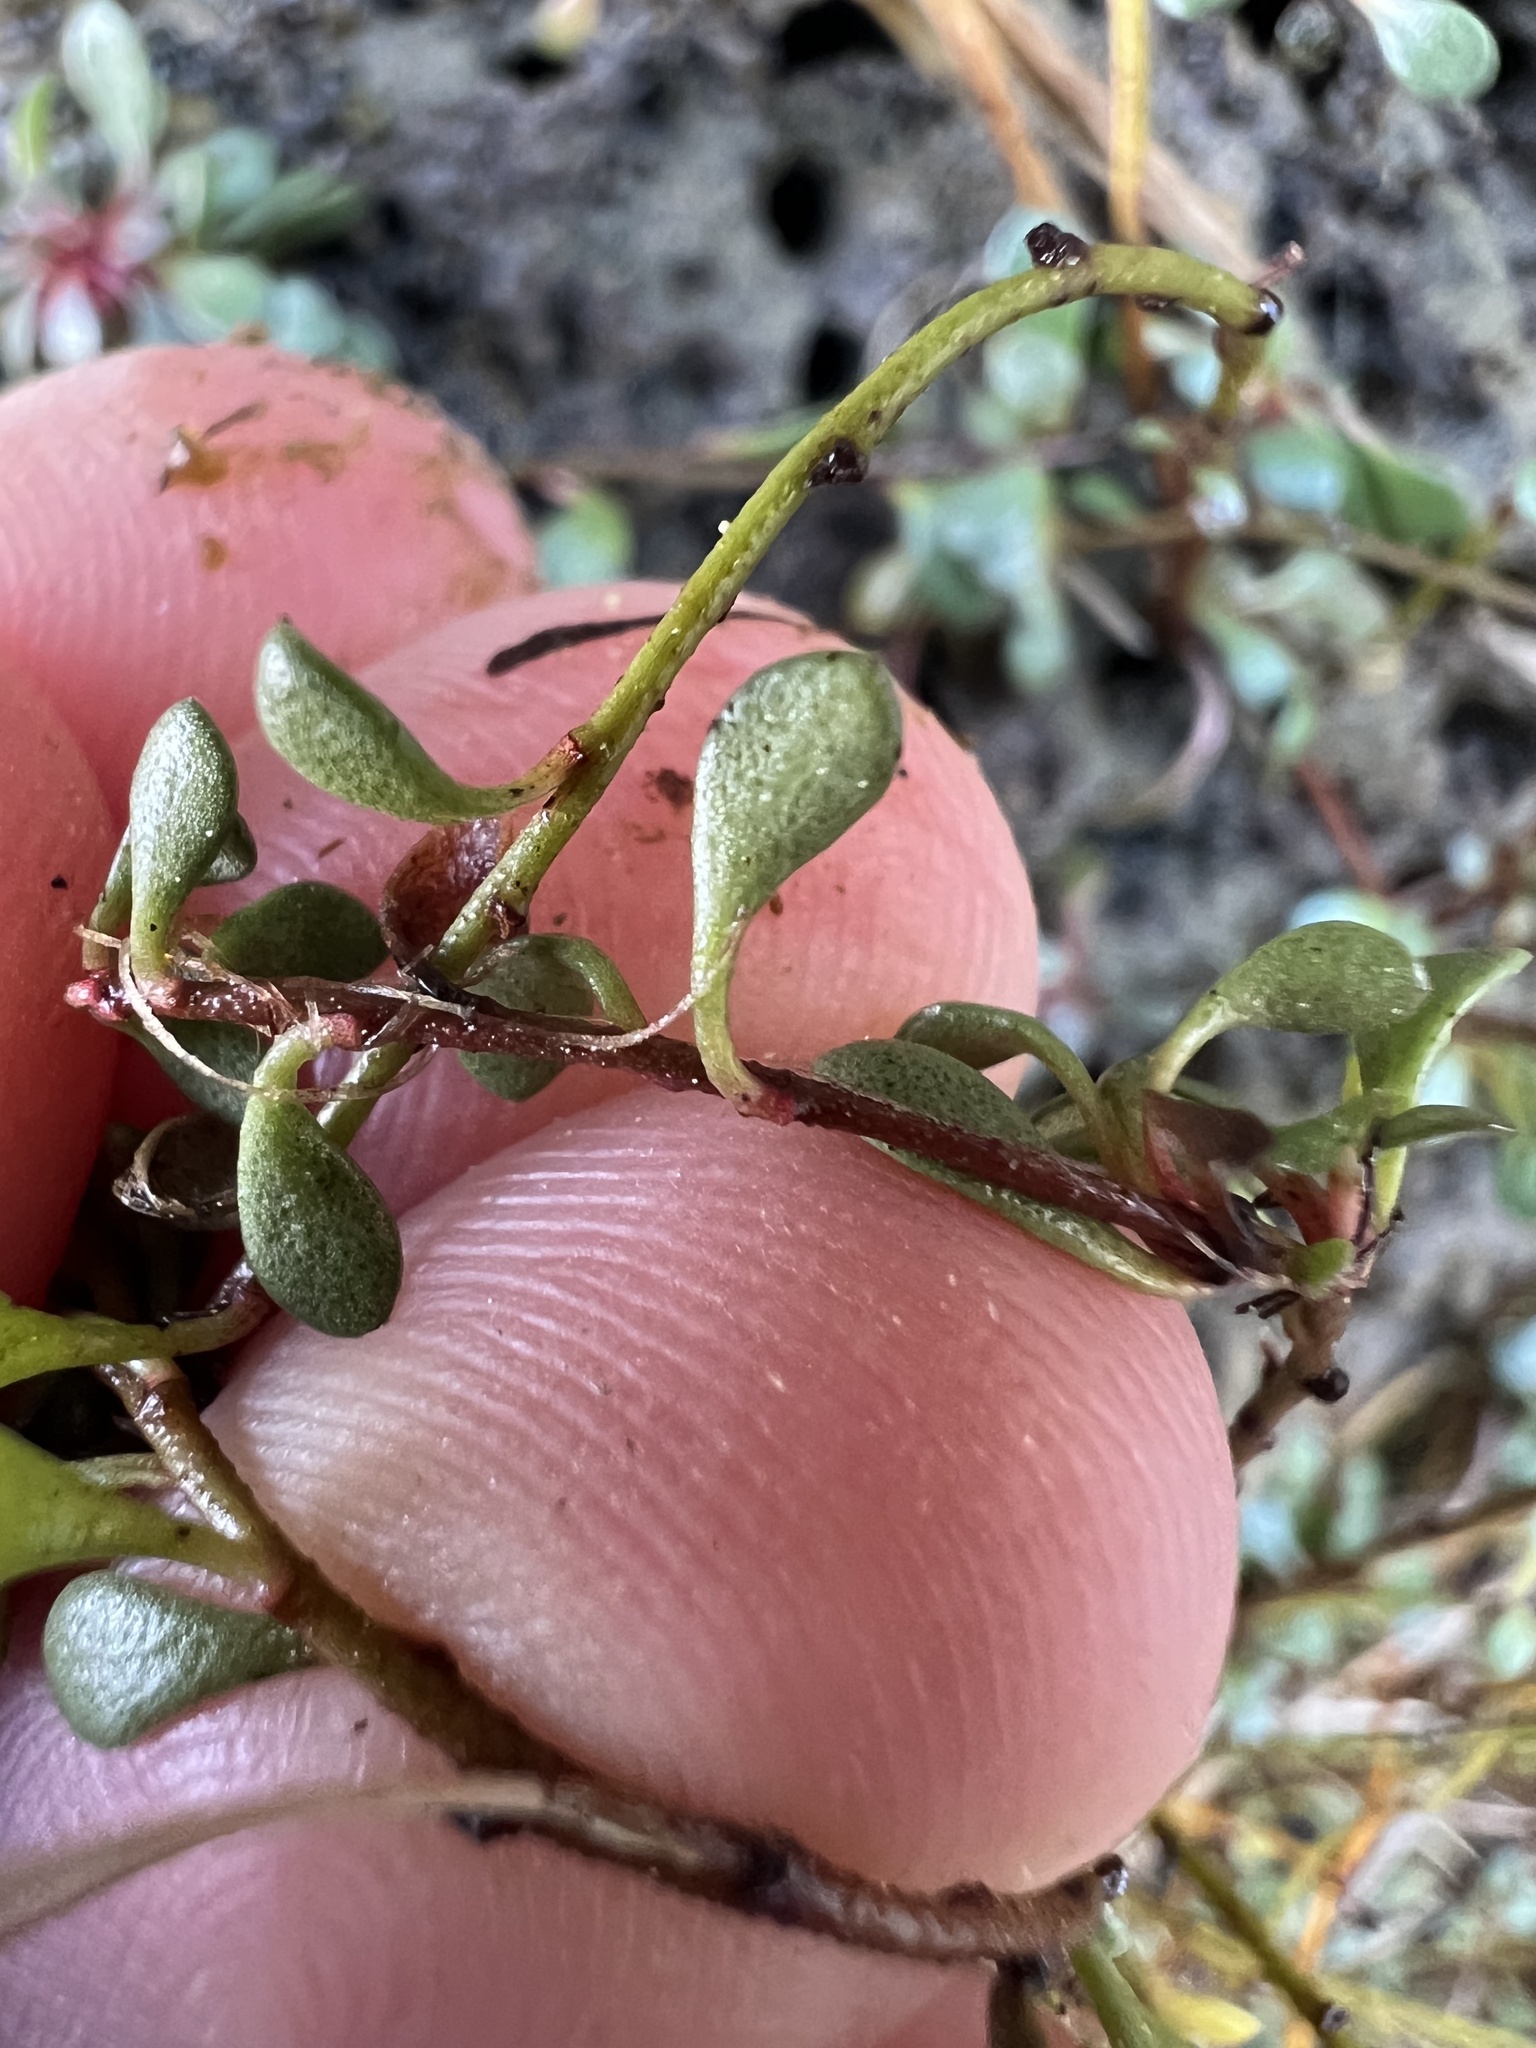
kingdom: Plantae
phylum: Tracheophyta
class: Magnoliopsida
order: Ericales
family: Primulaceae
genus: Samolus
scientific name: Samolus repens
